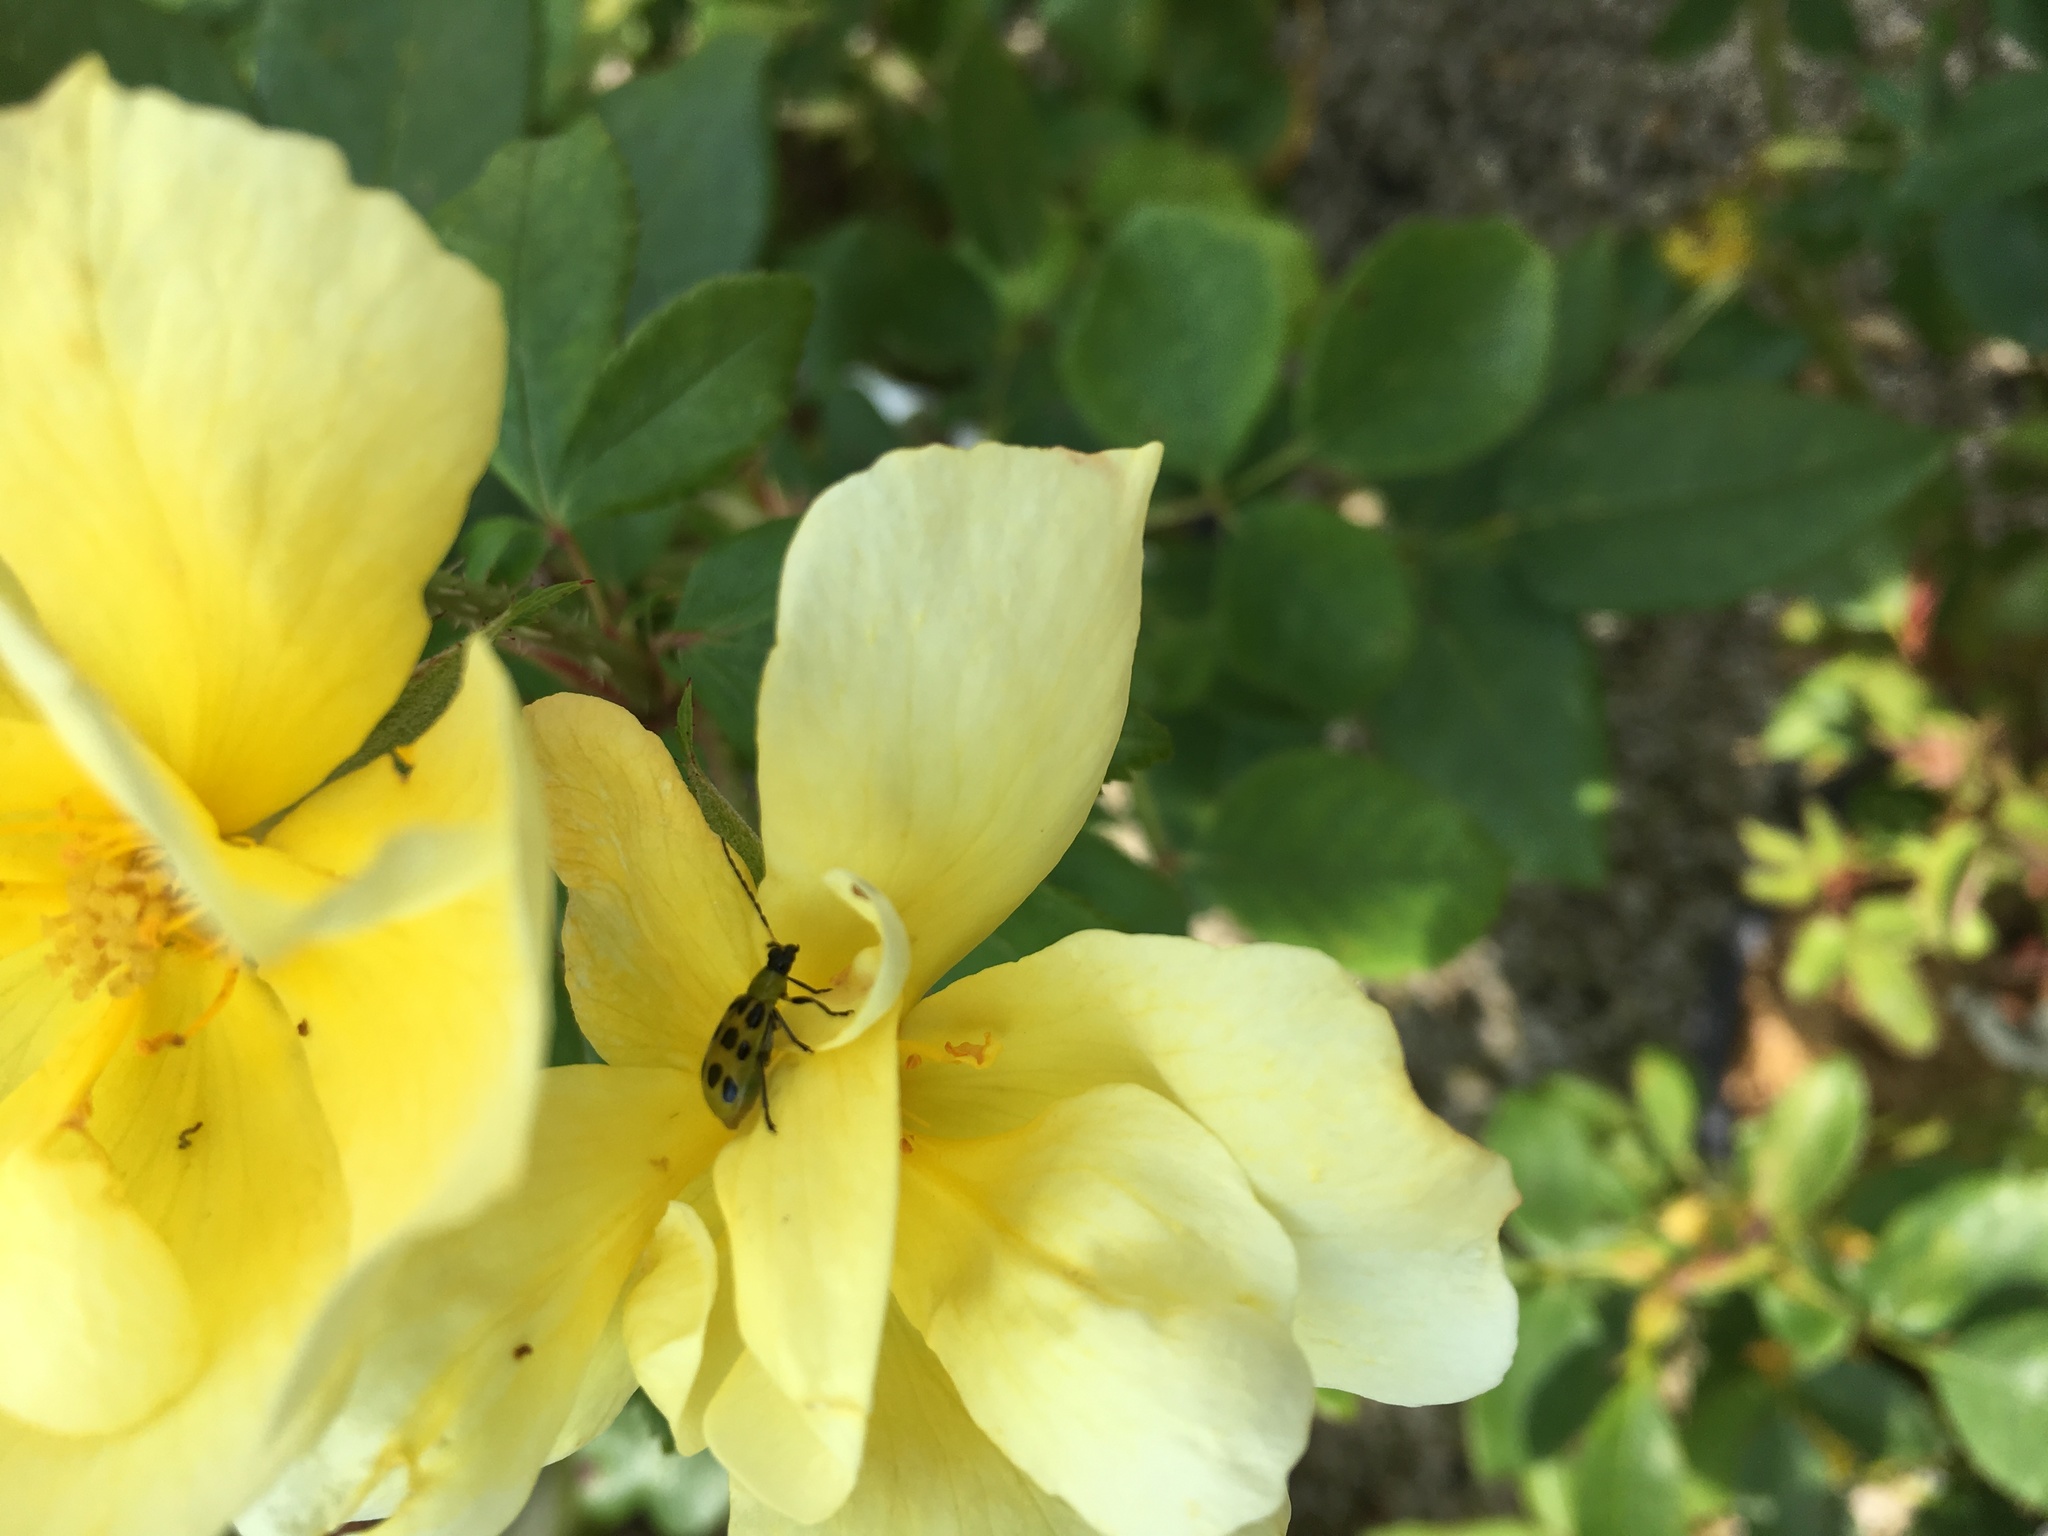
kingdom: Animalia
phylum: Arthropoda
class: Insecta
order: Coleoptera
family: Chrysomelidae
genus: Diabrotica
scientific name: Diabrotica undecimpunctata
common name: Spotted cucumber beetle
